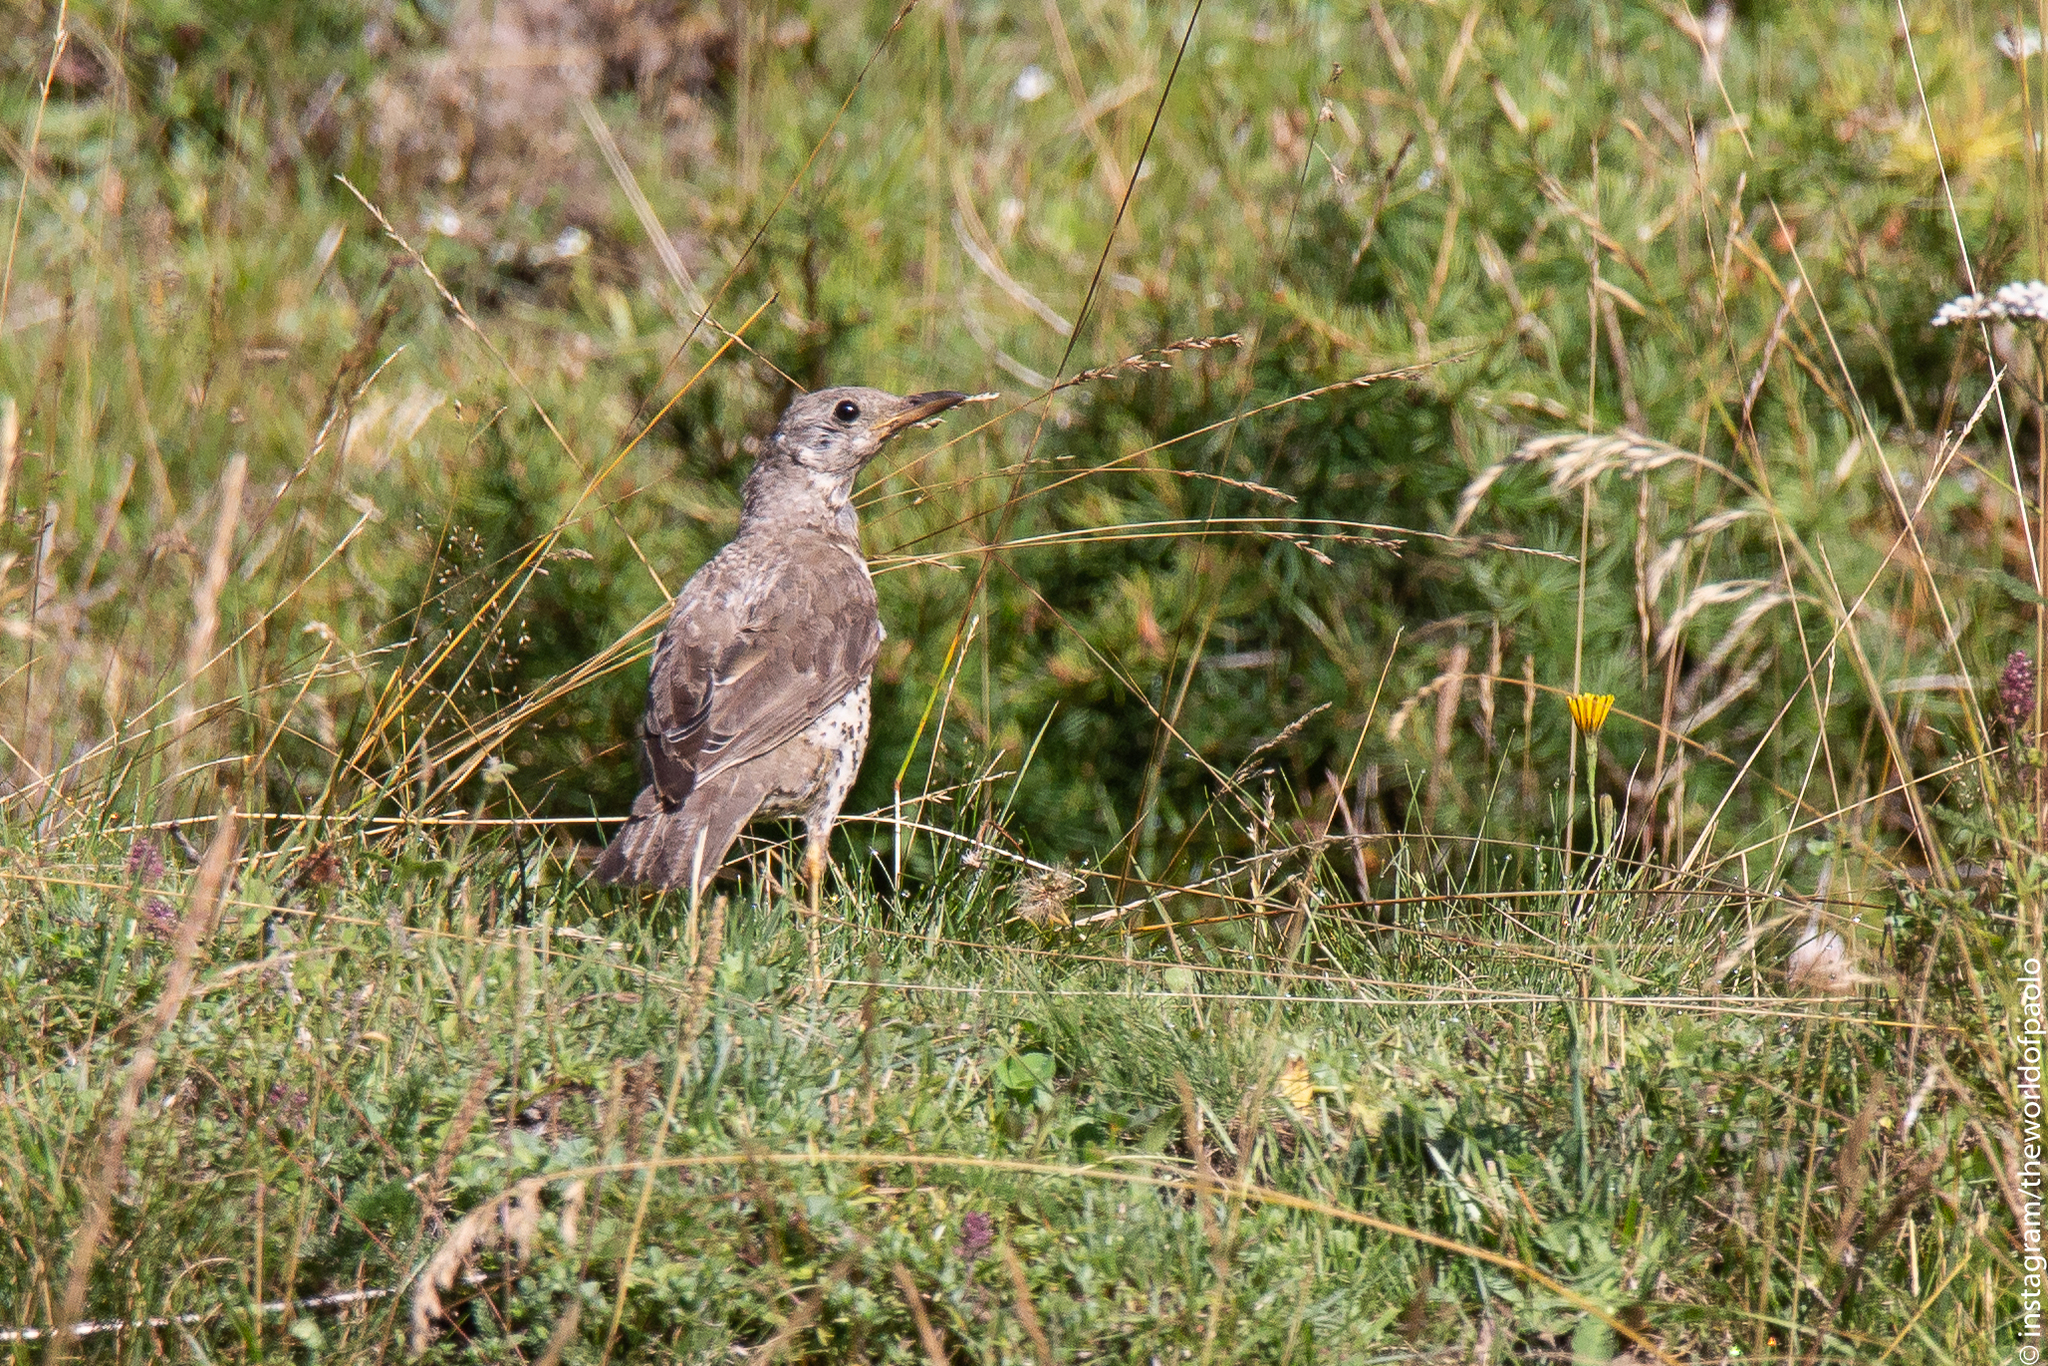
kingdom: Animalia
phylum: Chordata
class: Aves
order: Passeriformes
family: Turdidae
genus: Turdus
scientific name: Turdus viscivorus
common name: Mistle thrush
